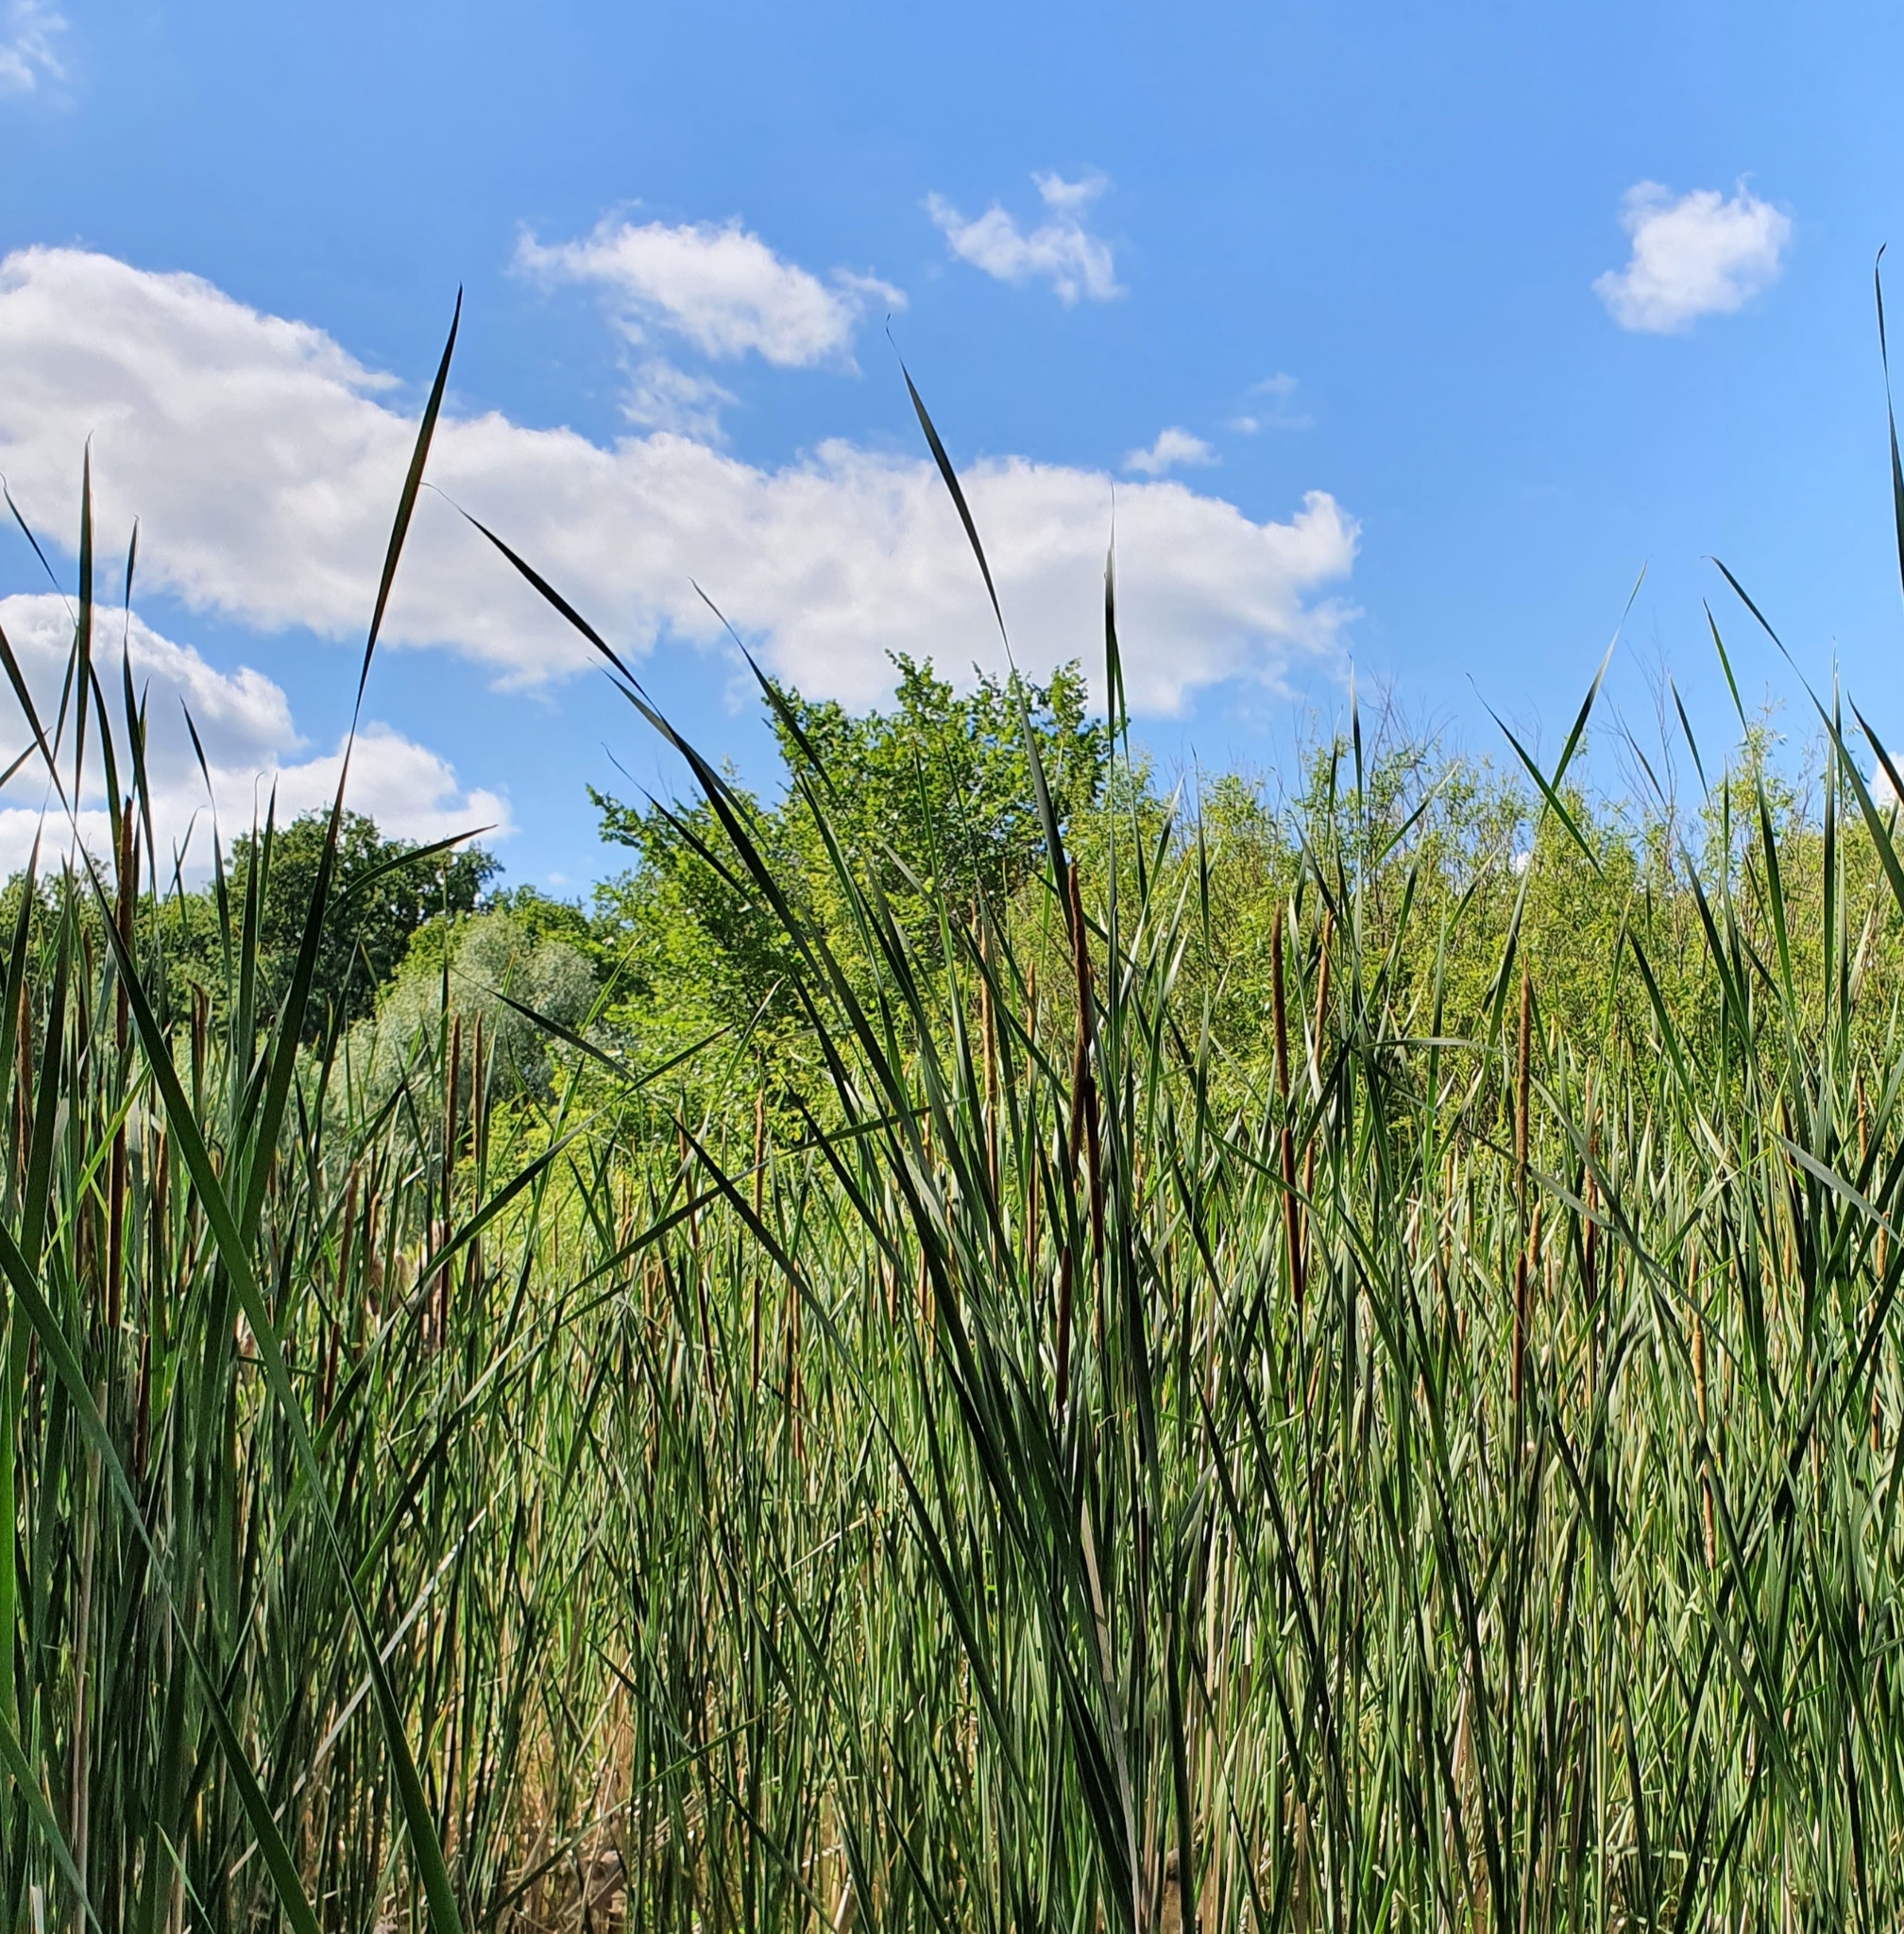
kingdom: Plantae
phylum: Tracheophyta
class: Liliopsida
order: Poales
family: Typhaceae
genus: Typha
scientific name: Typha angustifolia
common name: Lesser bulrush
